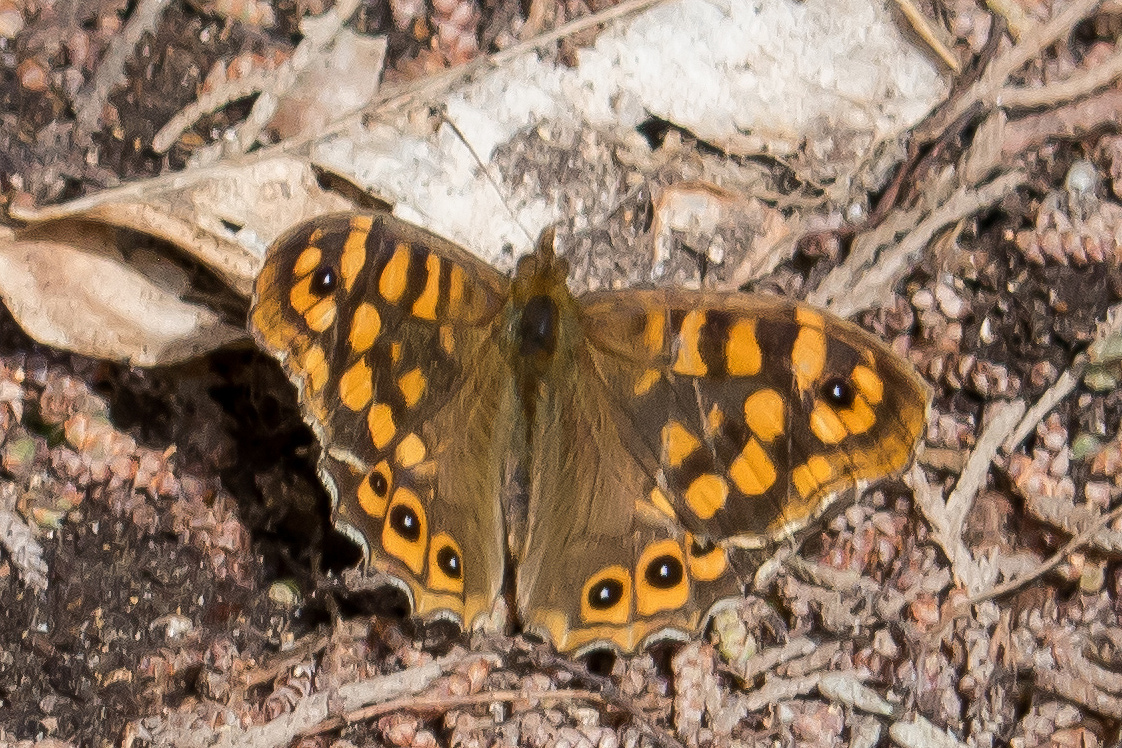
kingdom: Animalia
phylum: Arthropoda
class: Insecta
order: Lepidoptera
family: Nymphalidae
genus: Pararge
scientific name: Pararge aegeria
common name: Speckled wood
